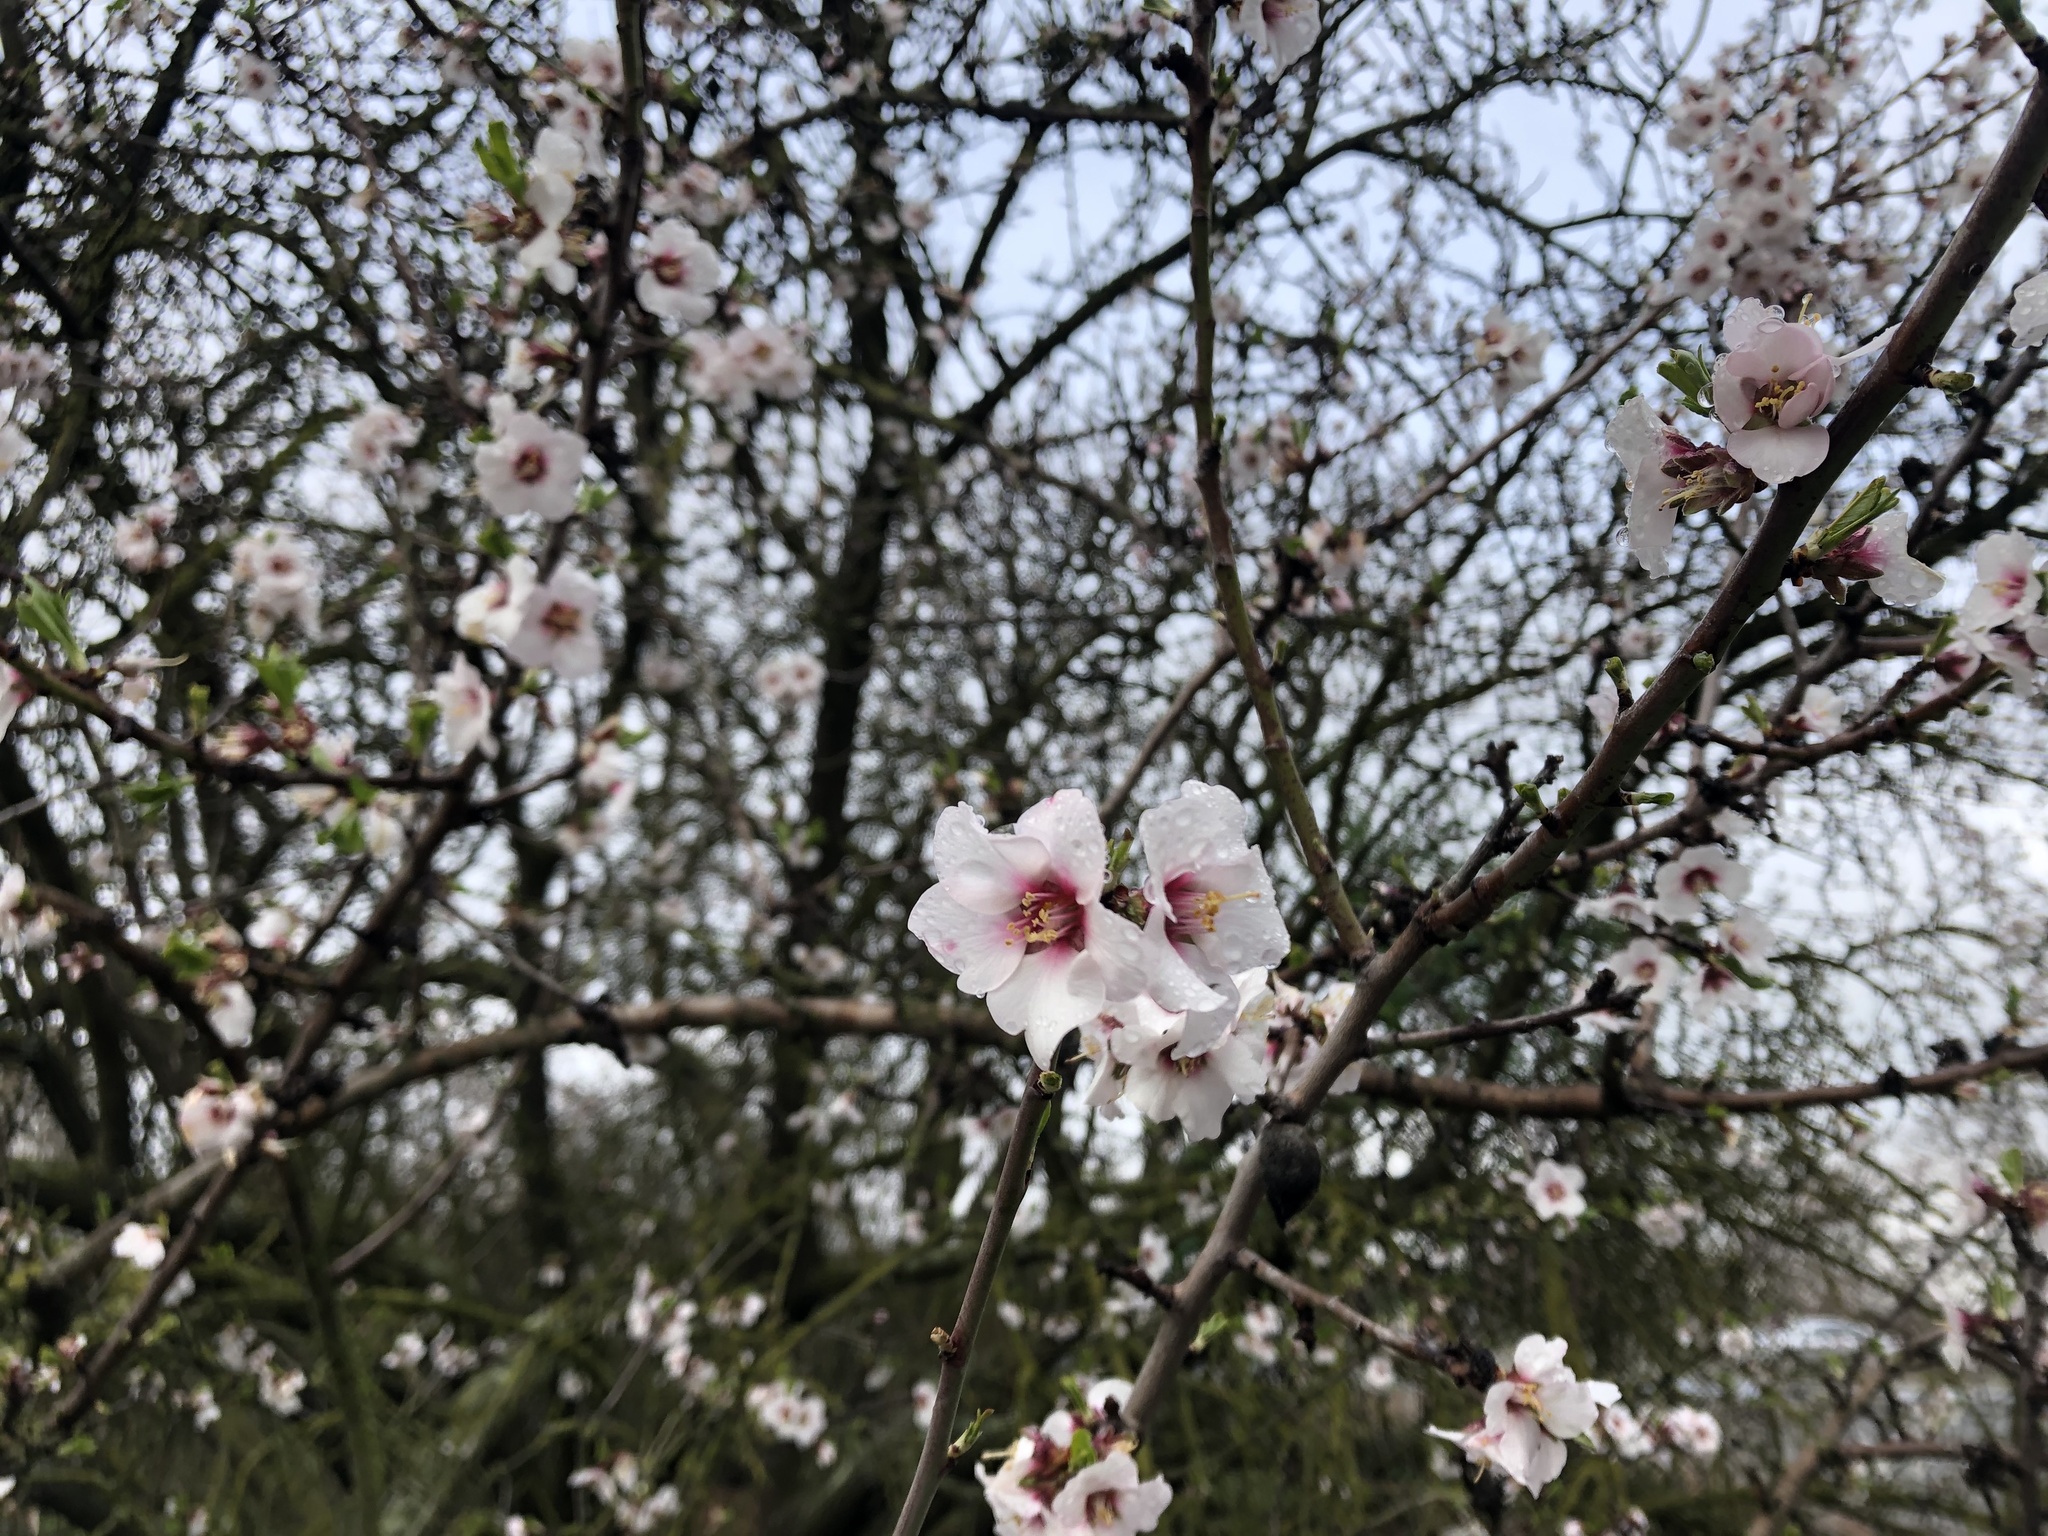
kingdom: Plantae
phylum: Tracheophyta
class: Magnoliopsida
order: Rosales
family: Rosaceae
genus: Prunus
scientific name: Prunus amygdalus
